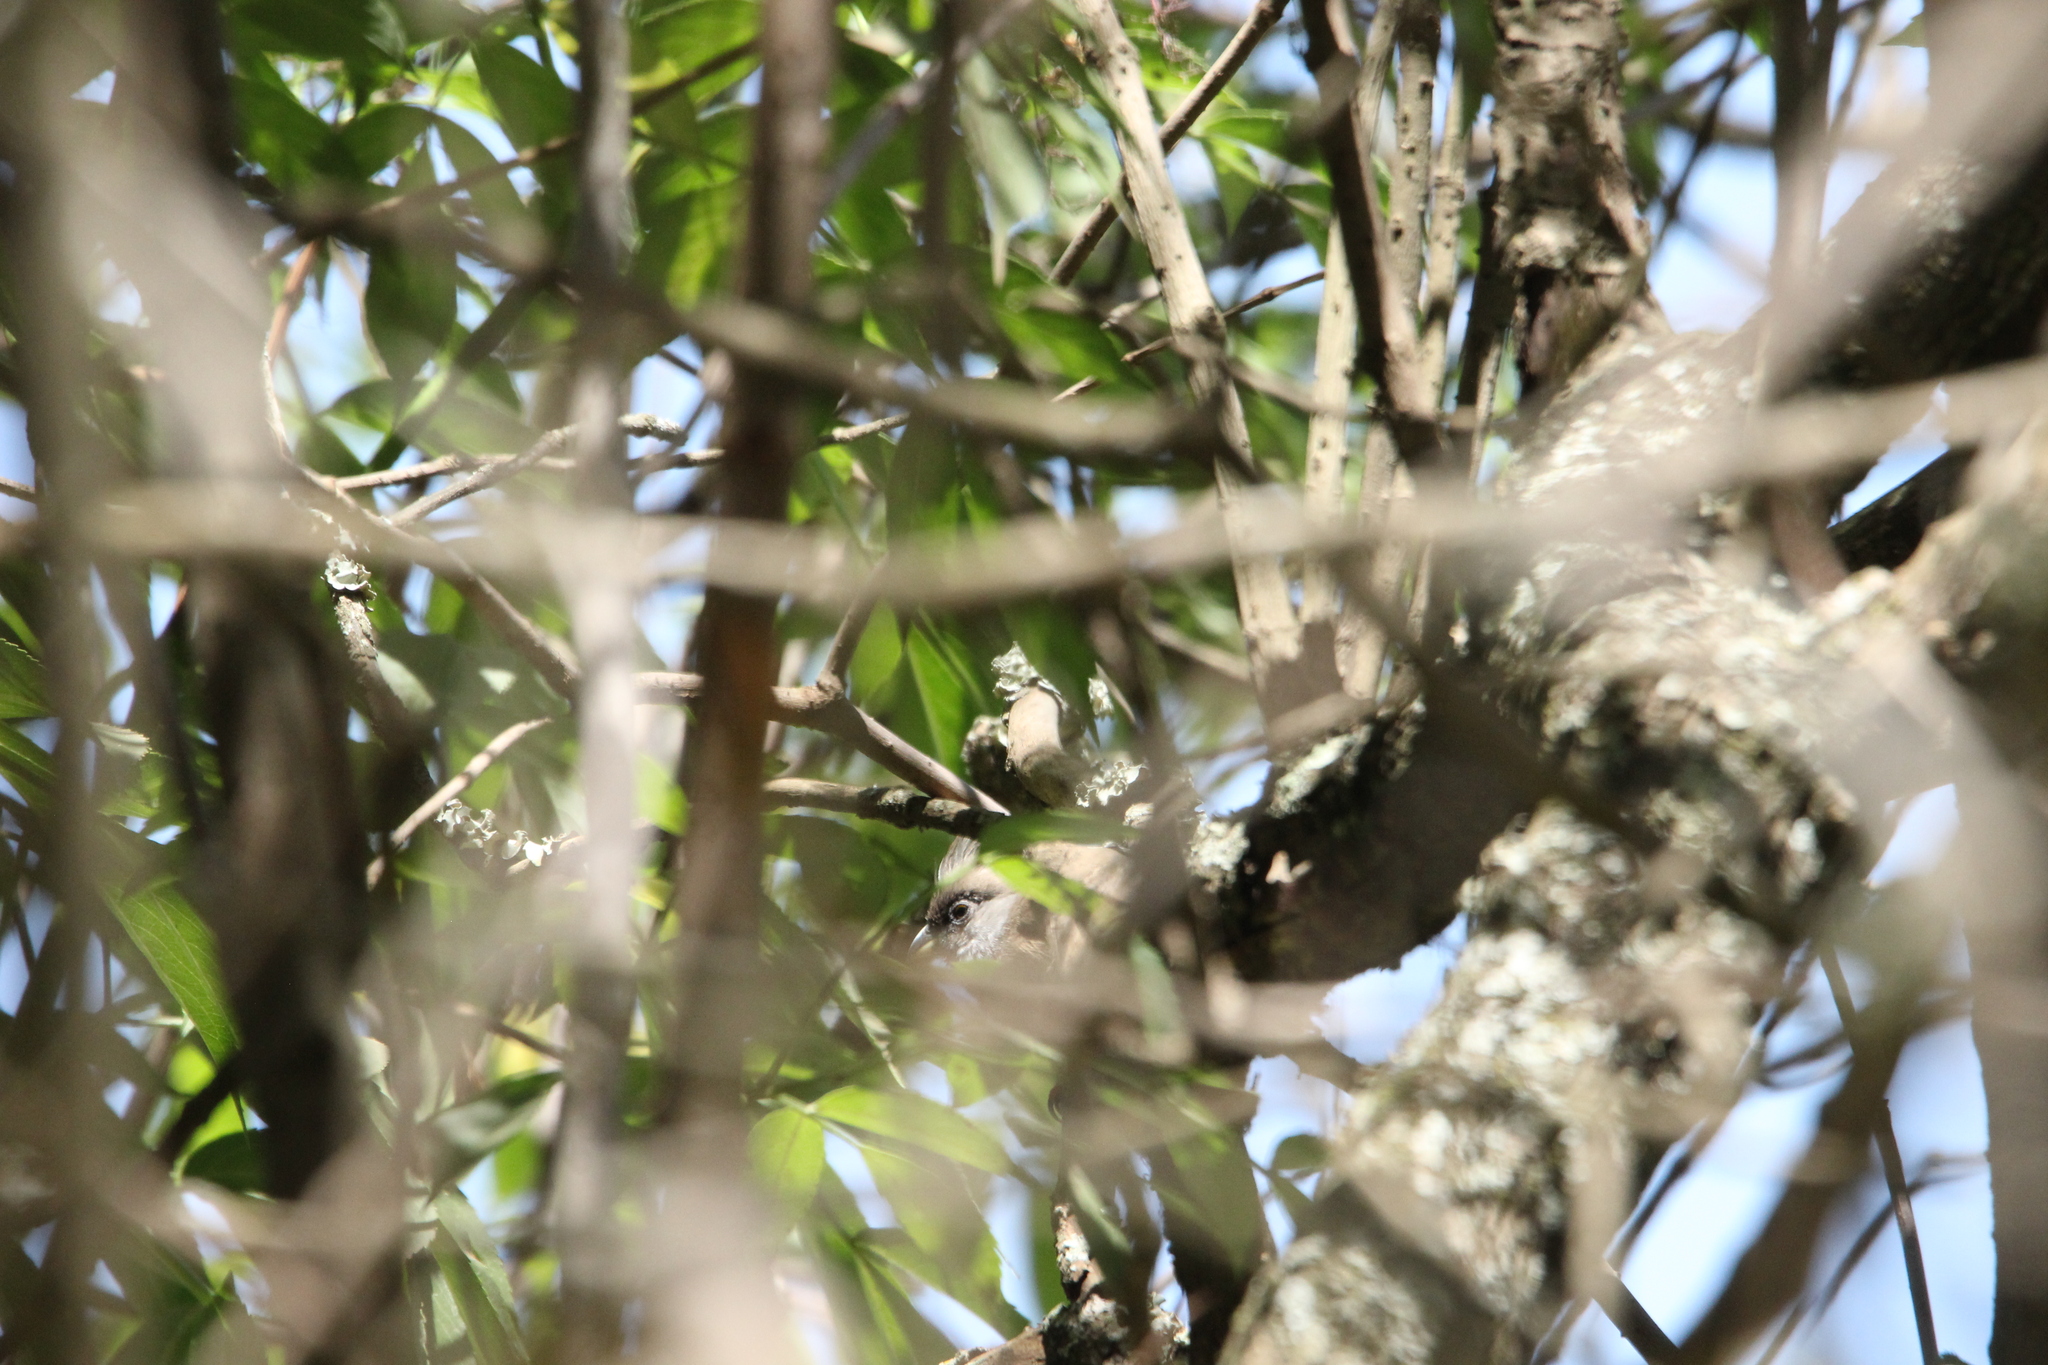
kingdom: Animalia
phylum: Chordata
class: Aves
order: Passeriformes
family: Monarchidae
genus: Terpsiphone
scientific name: Terpsiphone viridis
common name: African paradise flycatcher
